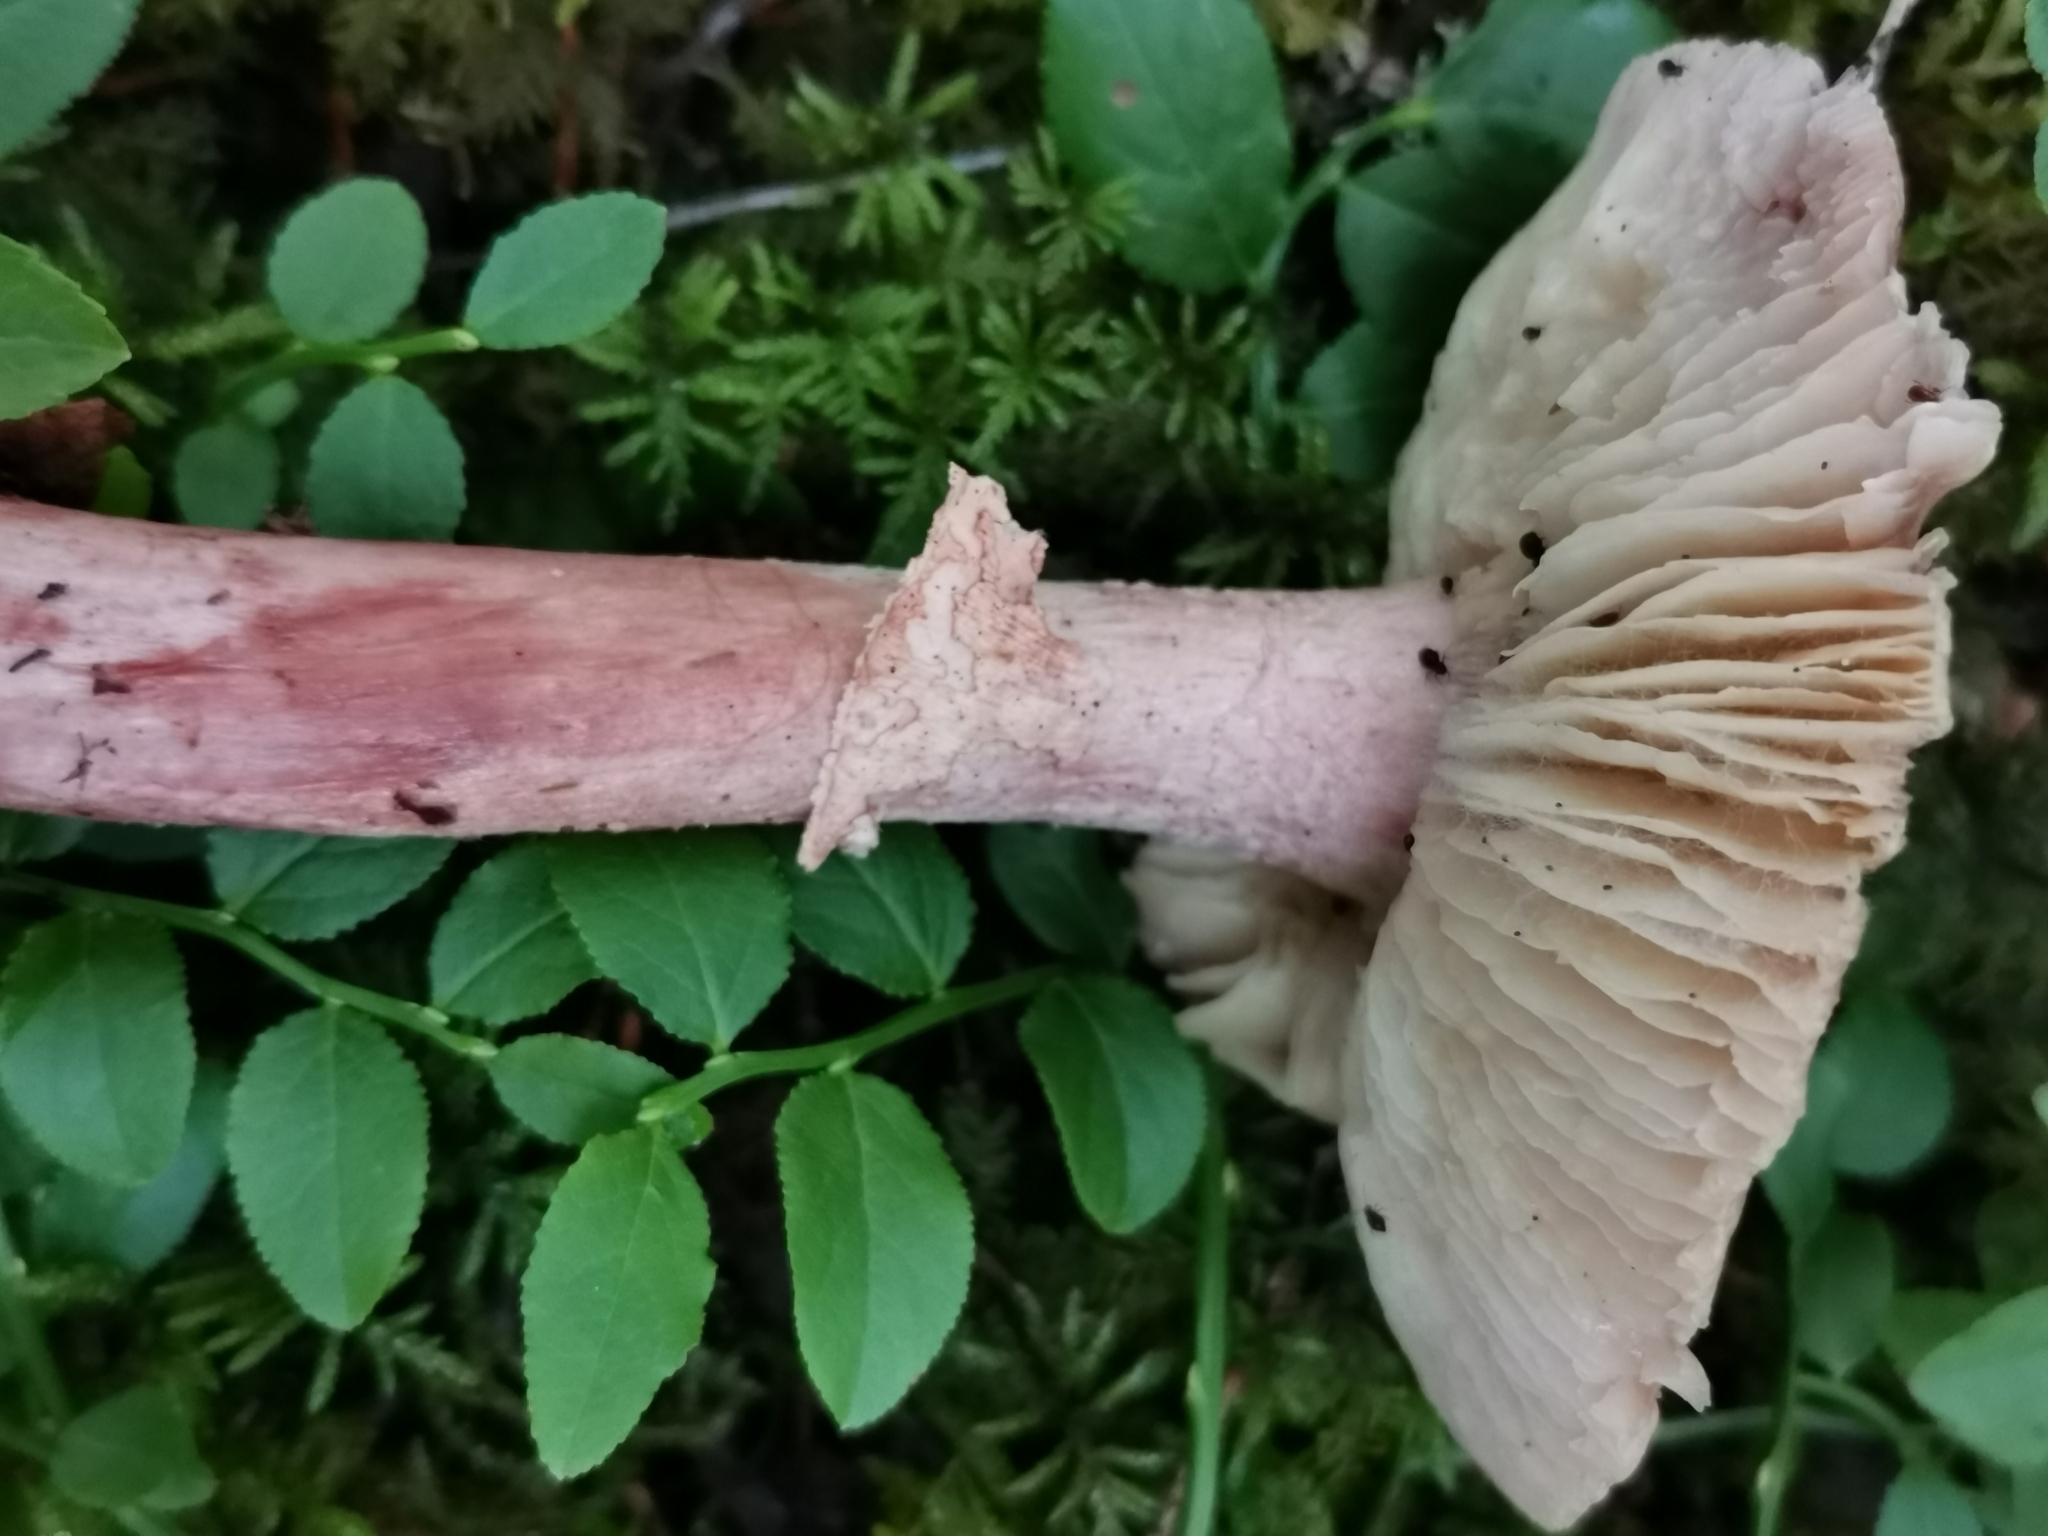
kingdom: Fungi
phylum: Basidiomycota
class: Agaricomycetes
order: Agaricales
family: Amanitaceae
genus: Amanita
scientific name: Amanita rubescens
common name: Blusher
